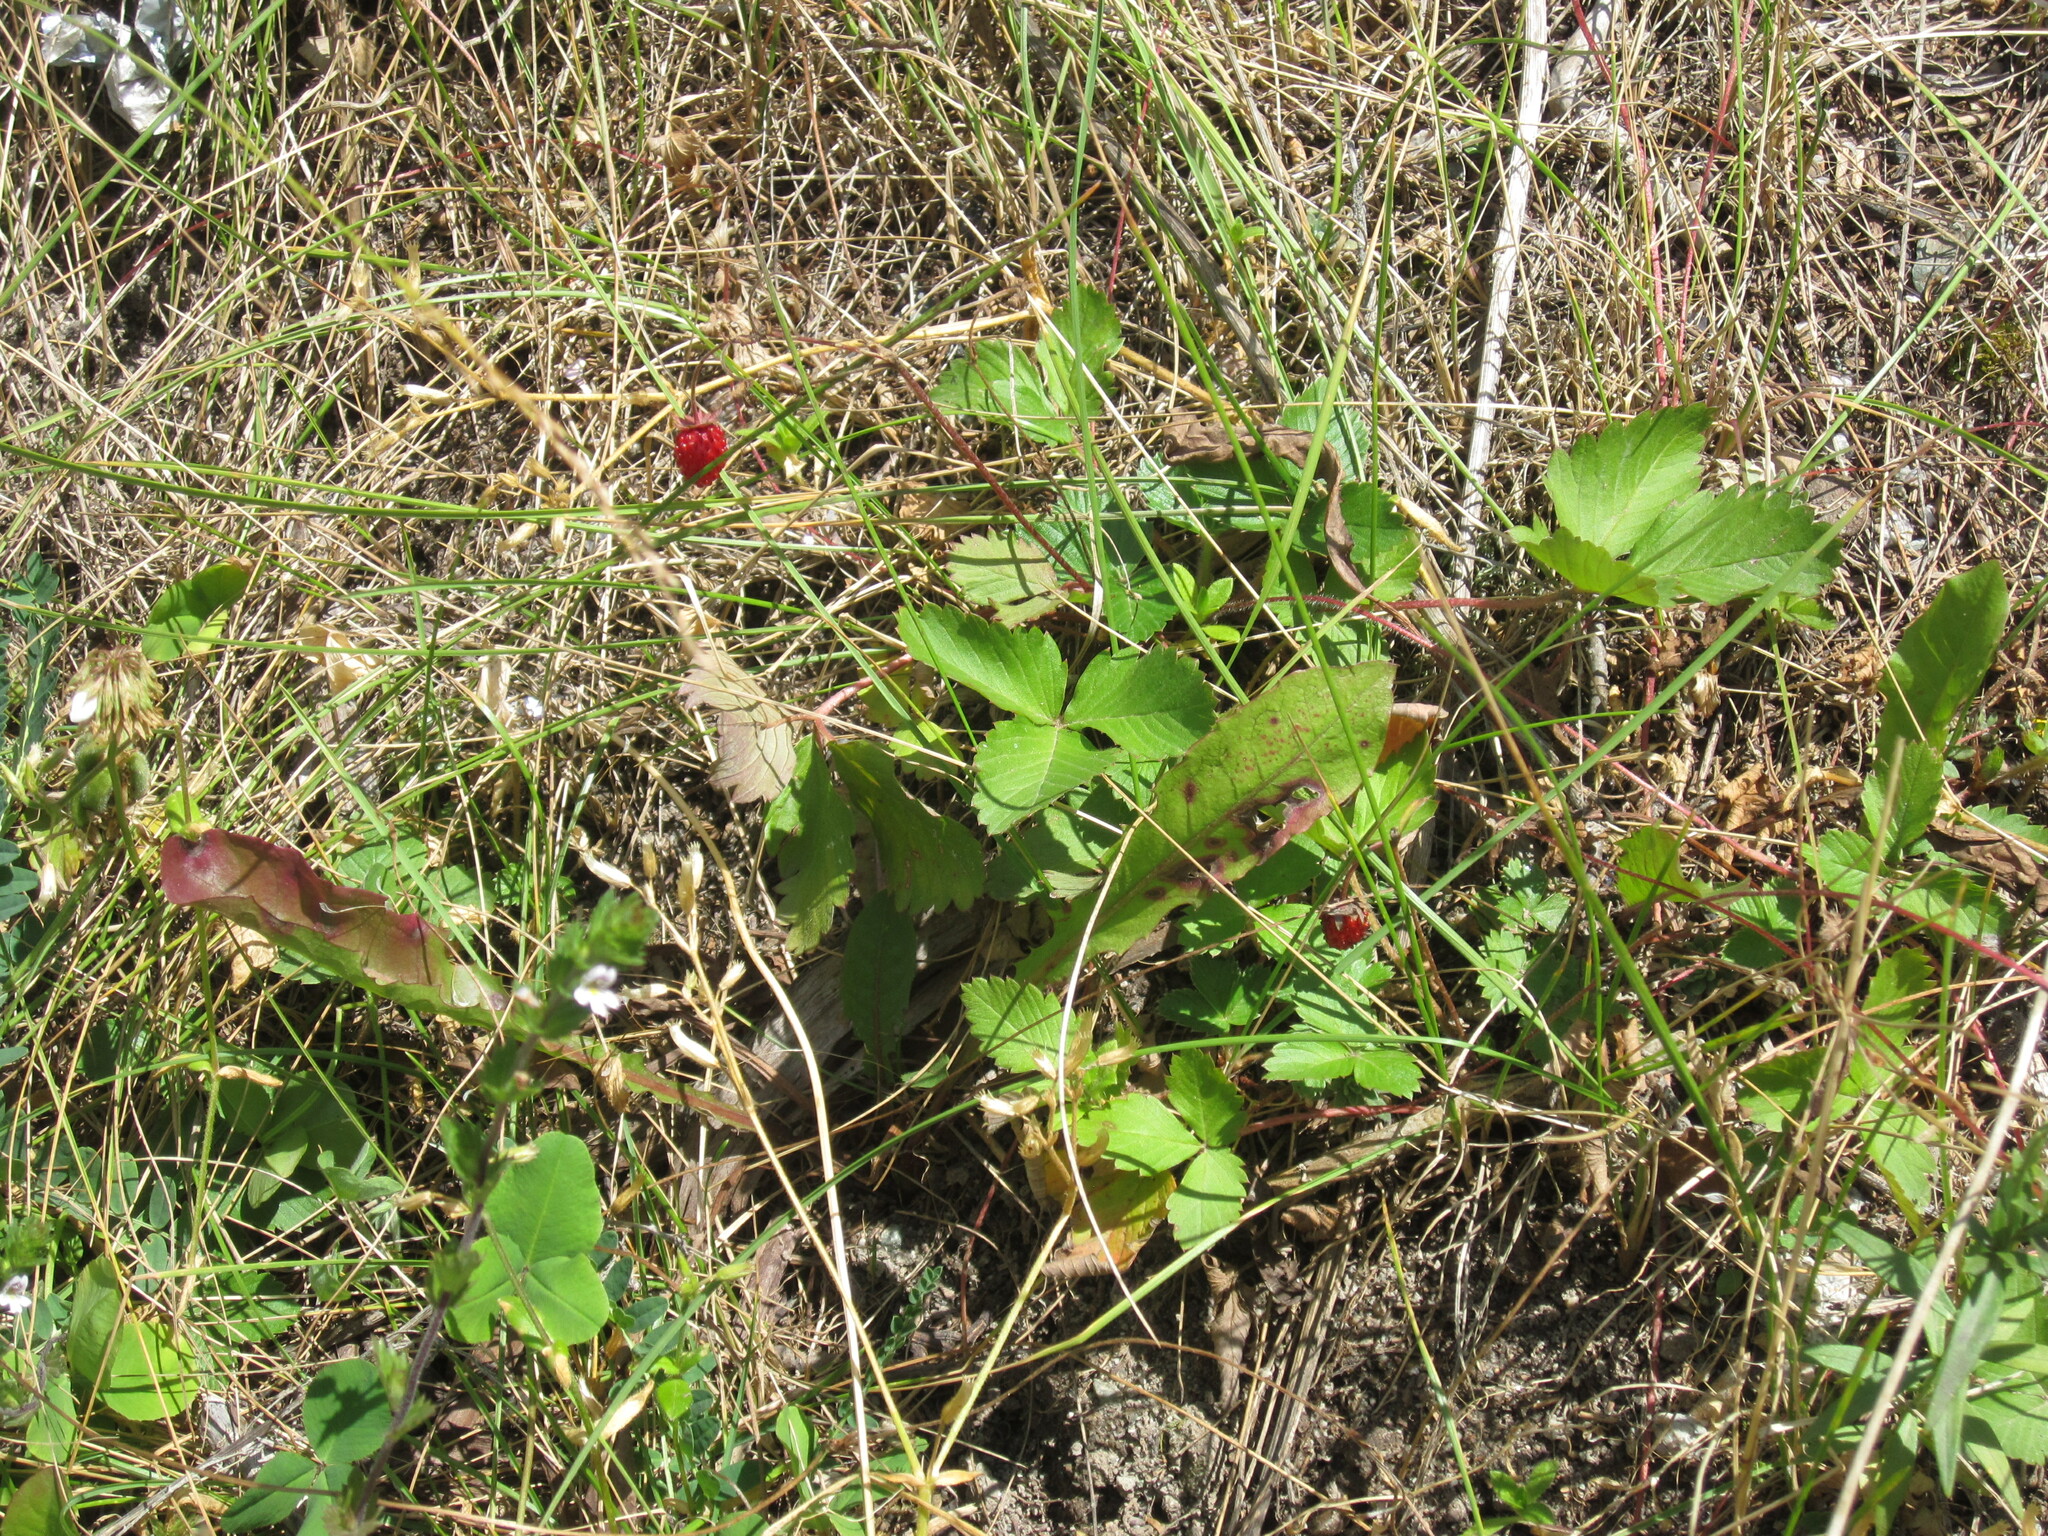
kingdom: Plantae
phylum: Tracheophyta
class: Magnoliopsida
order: Rosales
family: Rosaceae
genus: Fragaria
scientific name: Fragaria vesca
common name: Wild strawberry
